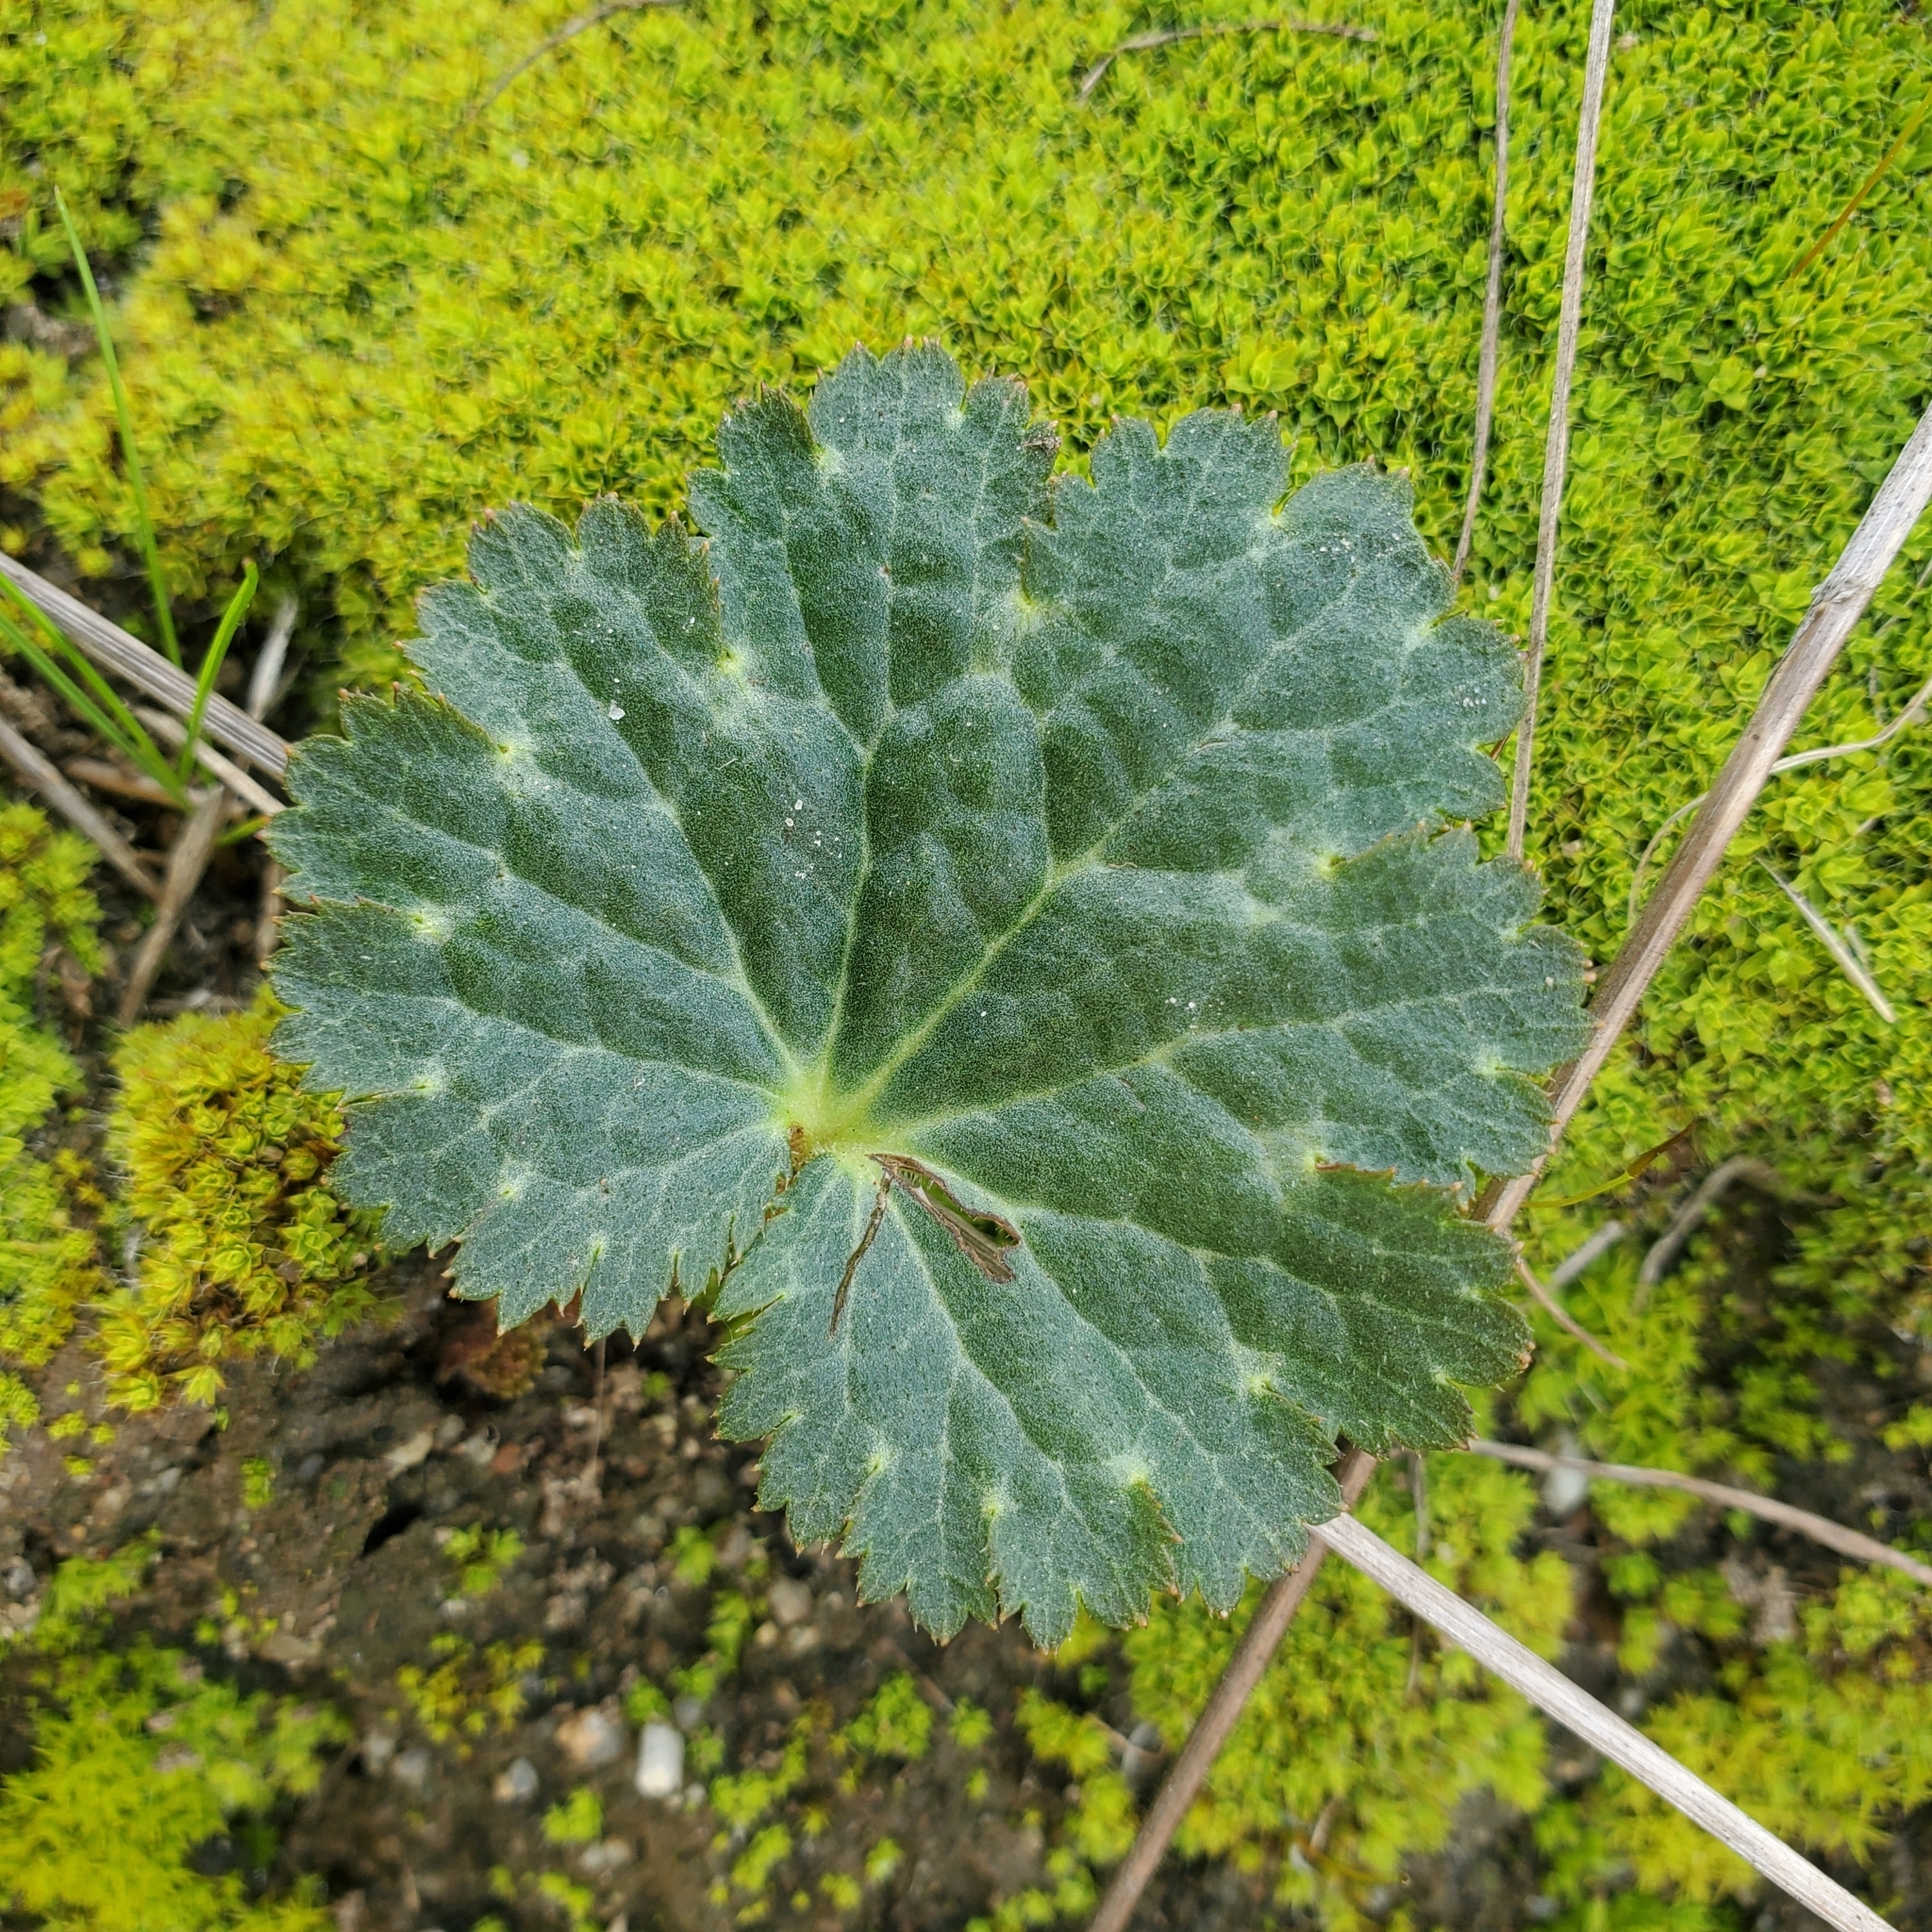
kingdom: Plantae
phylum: Tracheophyta
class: Magnoliopsida
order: Saxifragales
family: Saxifragaceae
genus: Jepsonia
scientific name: Jepsonia parryi
